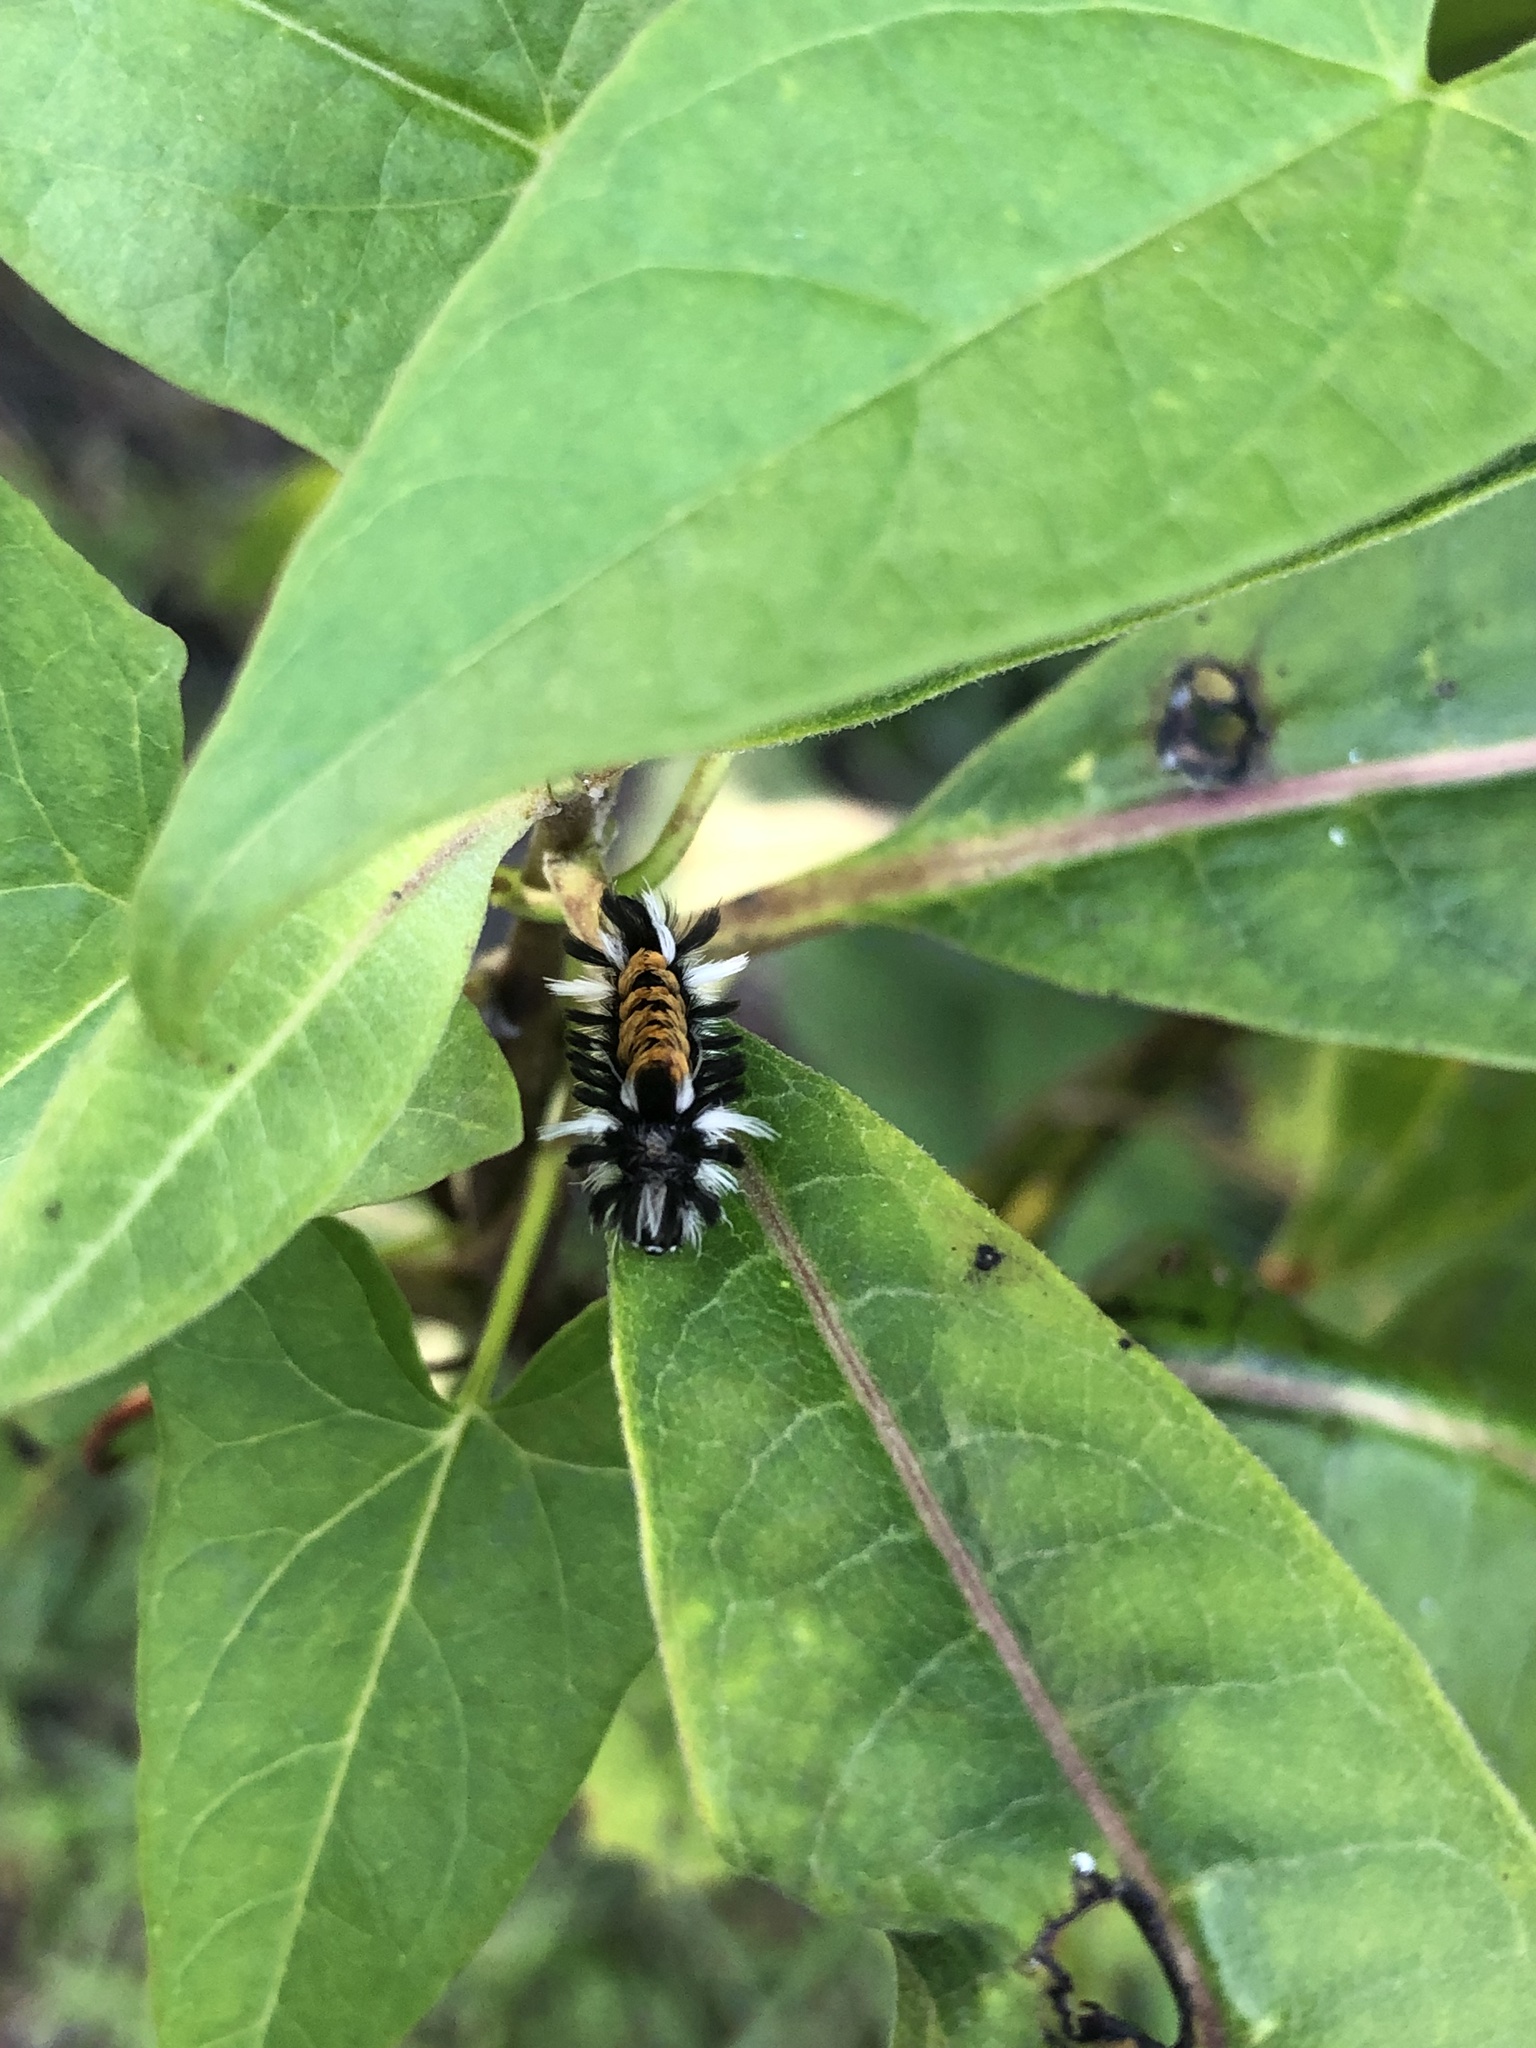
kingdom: Animalia
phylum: Arthropoda
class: Insecta
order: Lepidoptera
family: Erebidae
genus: Euchaetes
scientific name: Euchaetes egle
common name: Milkweed tussock moth
